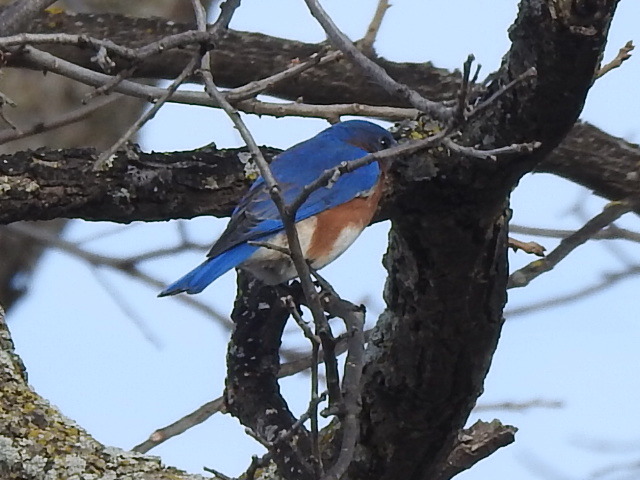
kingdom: Animalia
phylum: Chordata
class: Aves
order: Passeriformes
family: Turdidae
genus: Sialia
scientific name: Sialia sialis
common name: Eastern bluebird
